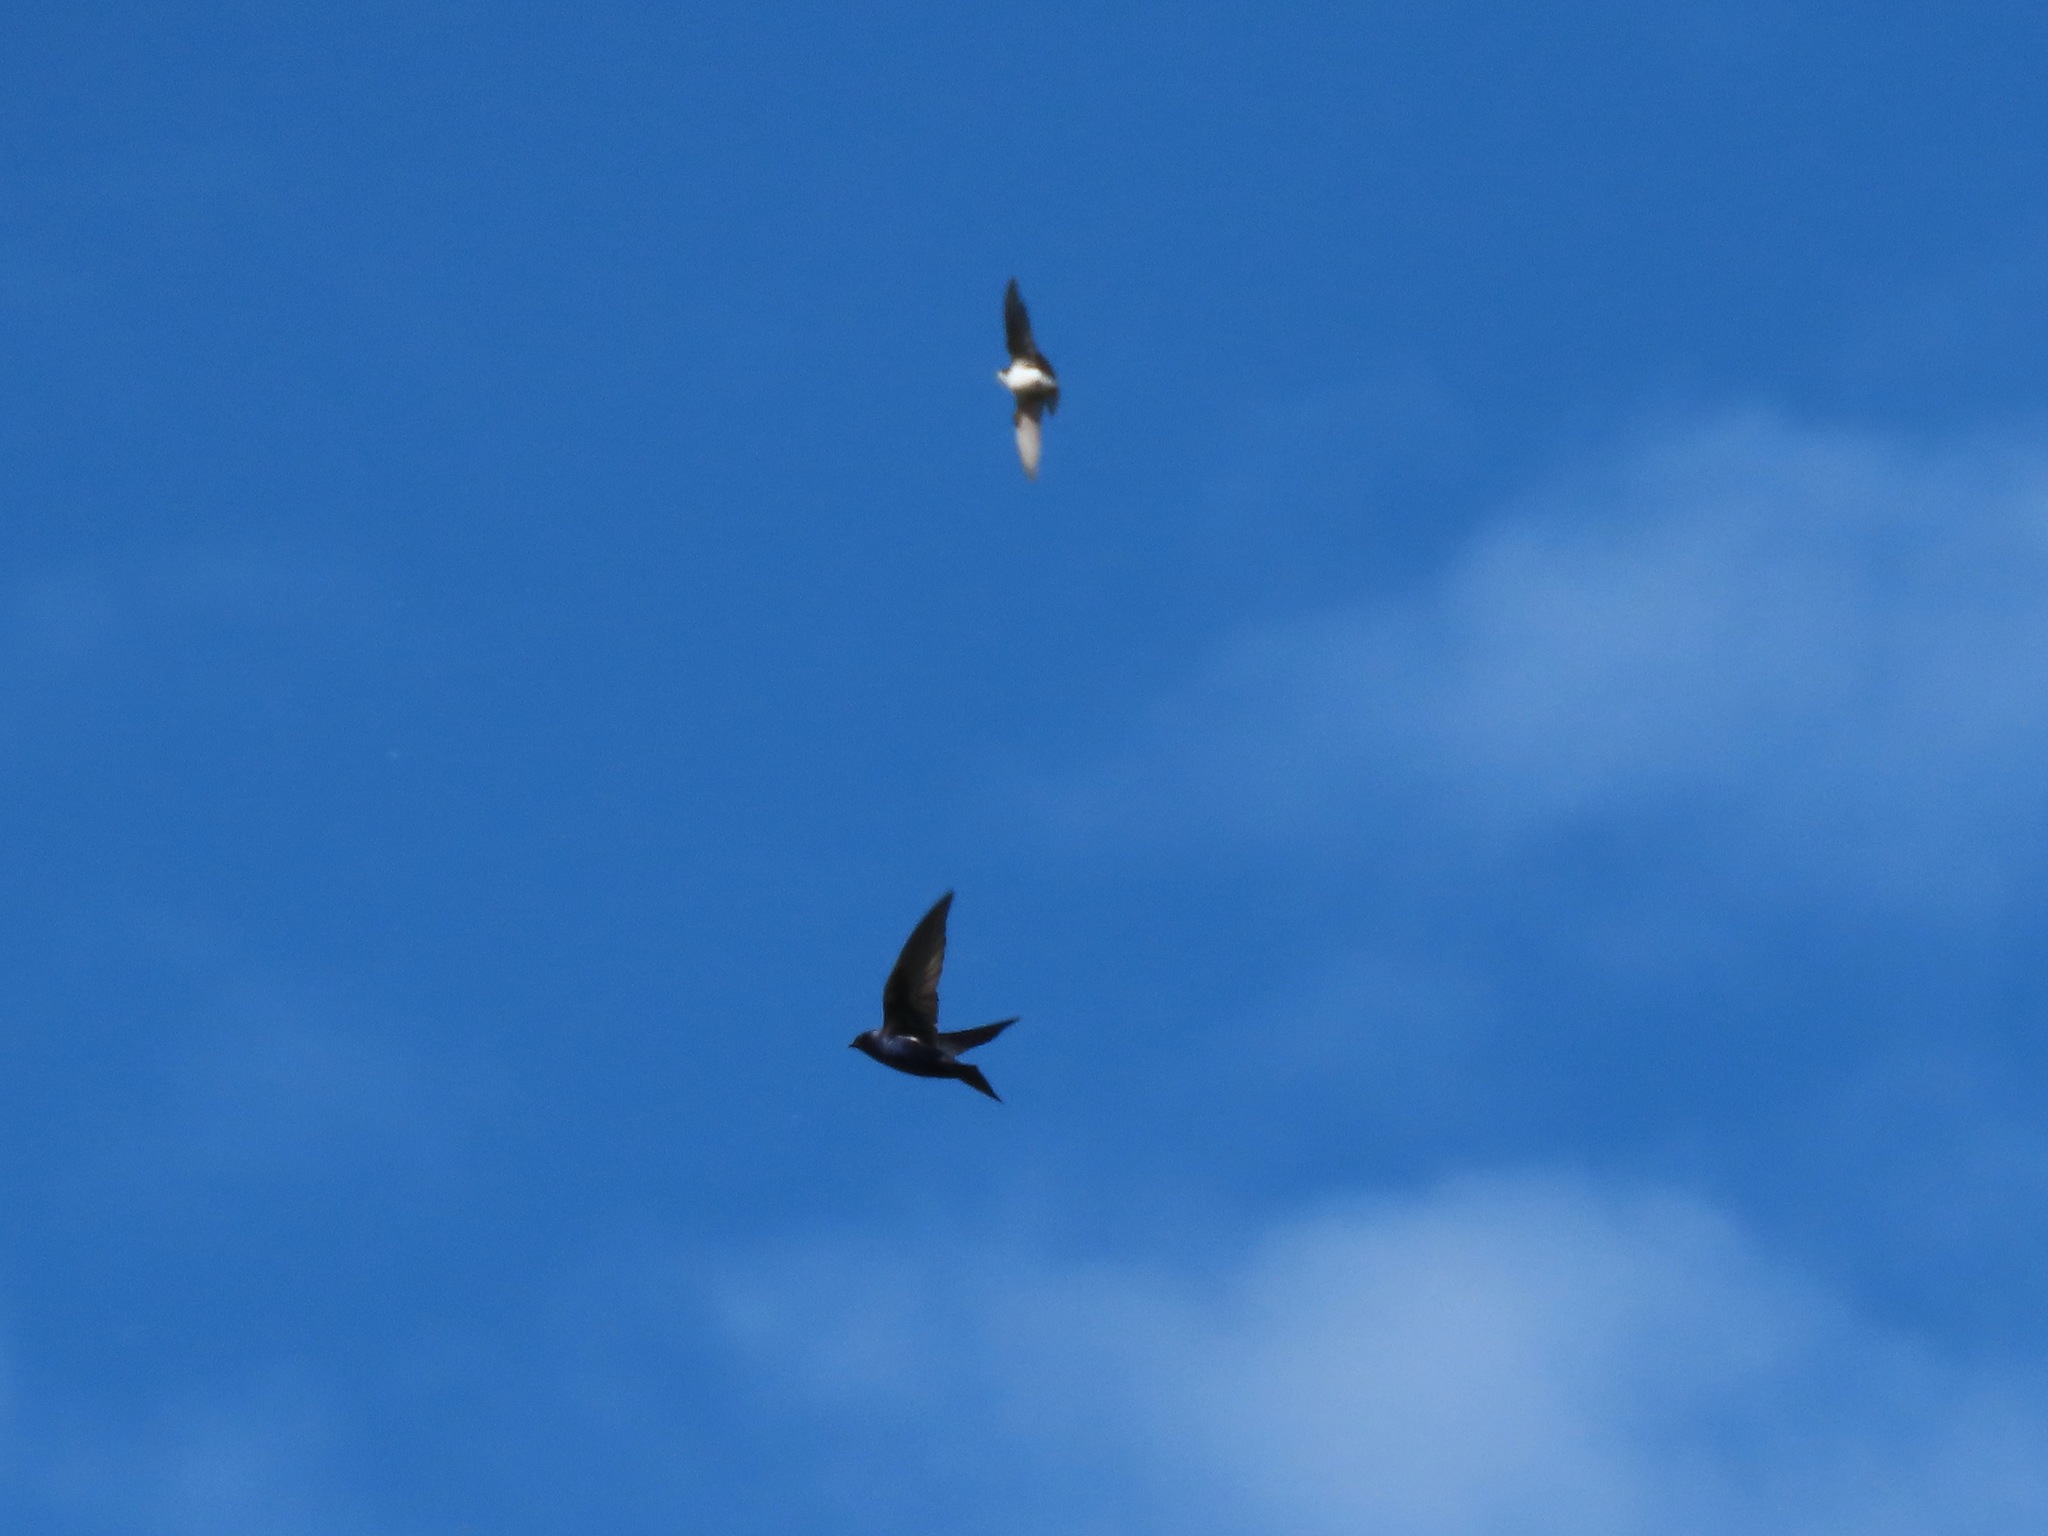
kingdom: Animalia
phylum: Chordata
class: Aves
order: Passeriformes
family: Hirundinidae
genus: Progne
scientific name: Progne subis
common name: Purple martin
